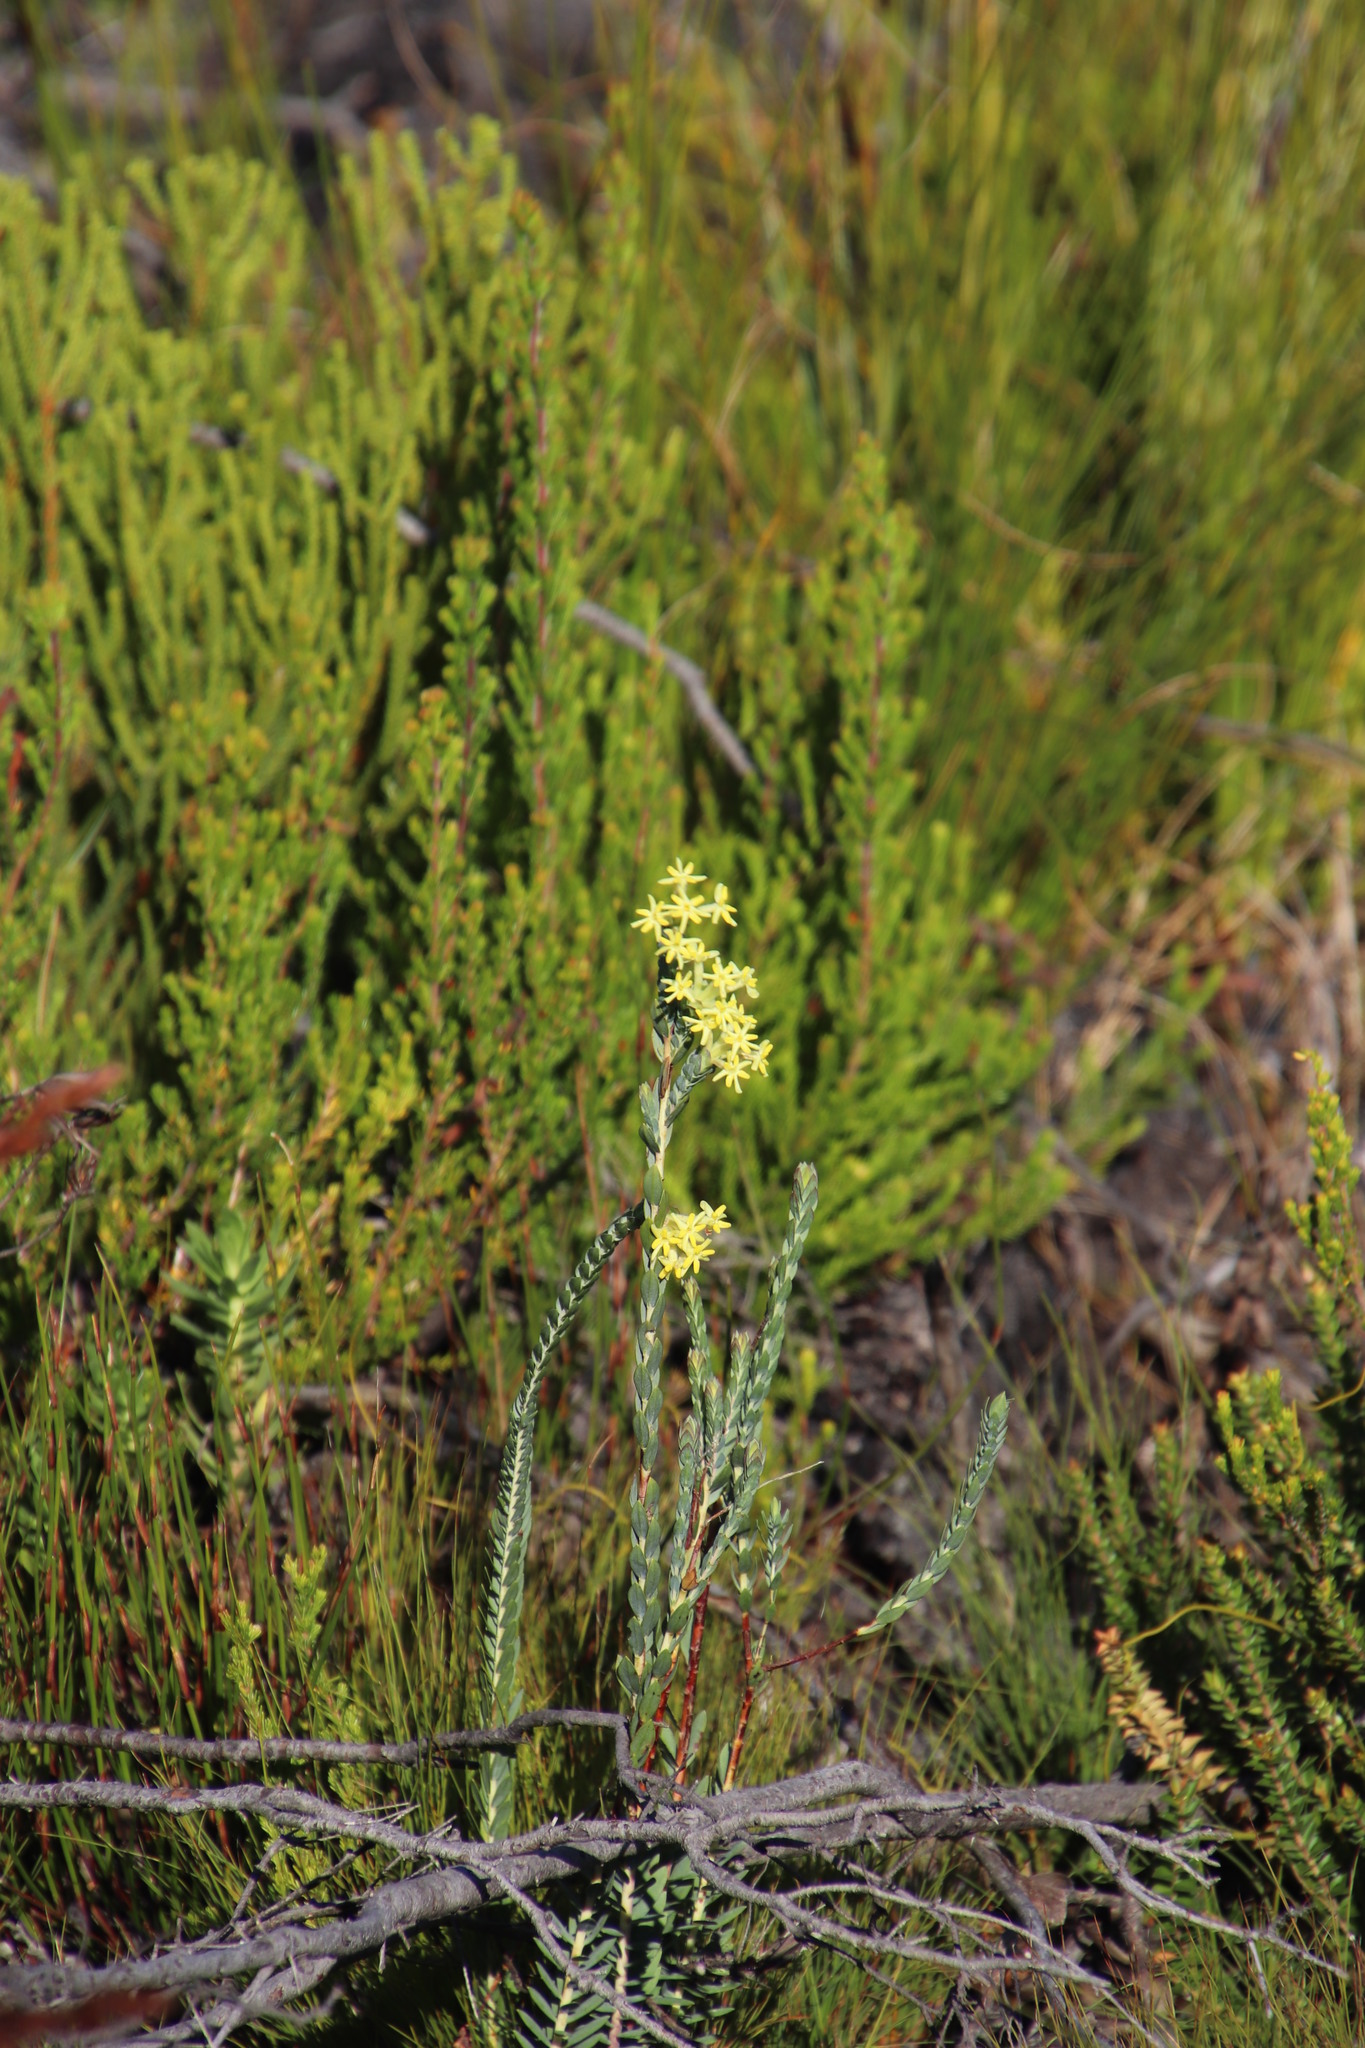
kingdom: Plantae
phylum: Tracheophyta
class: Magnoliopsida
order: Malvales
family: Thymelaeaceae
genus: Gnidia
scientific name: Gnidia oppositifolia
